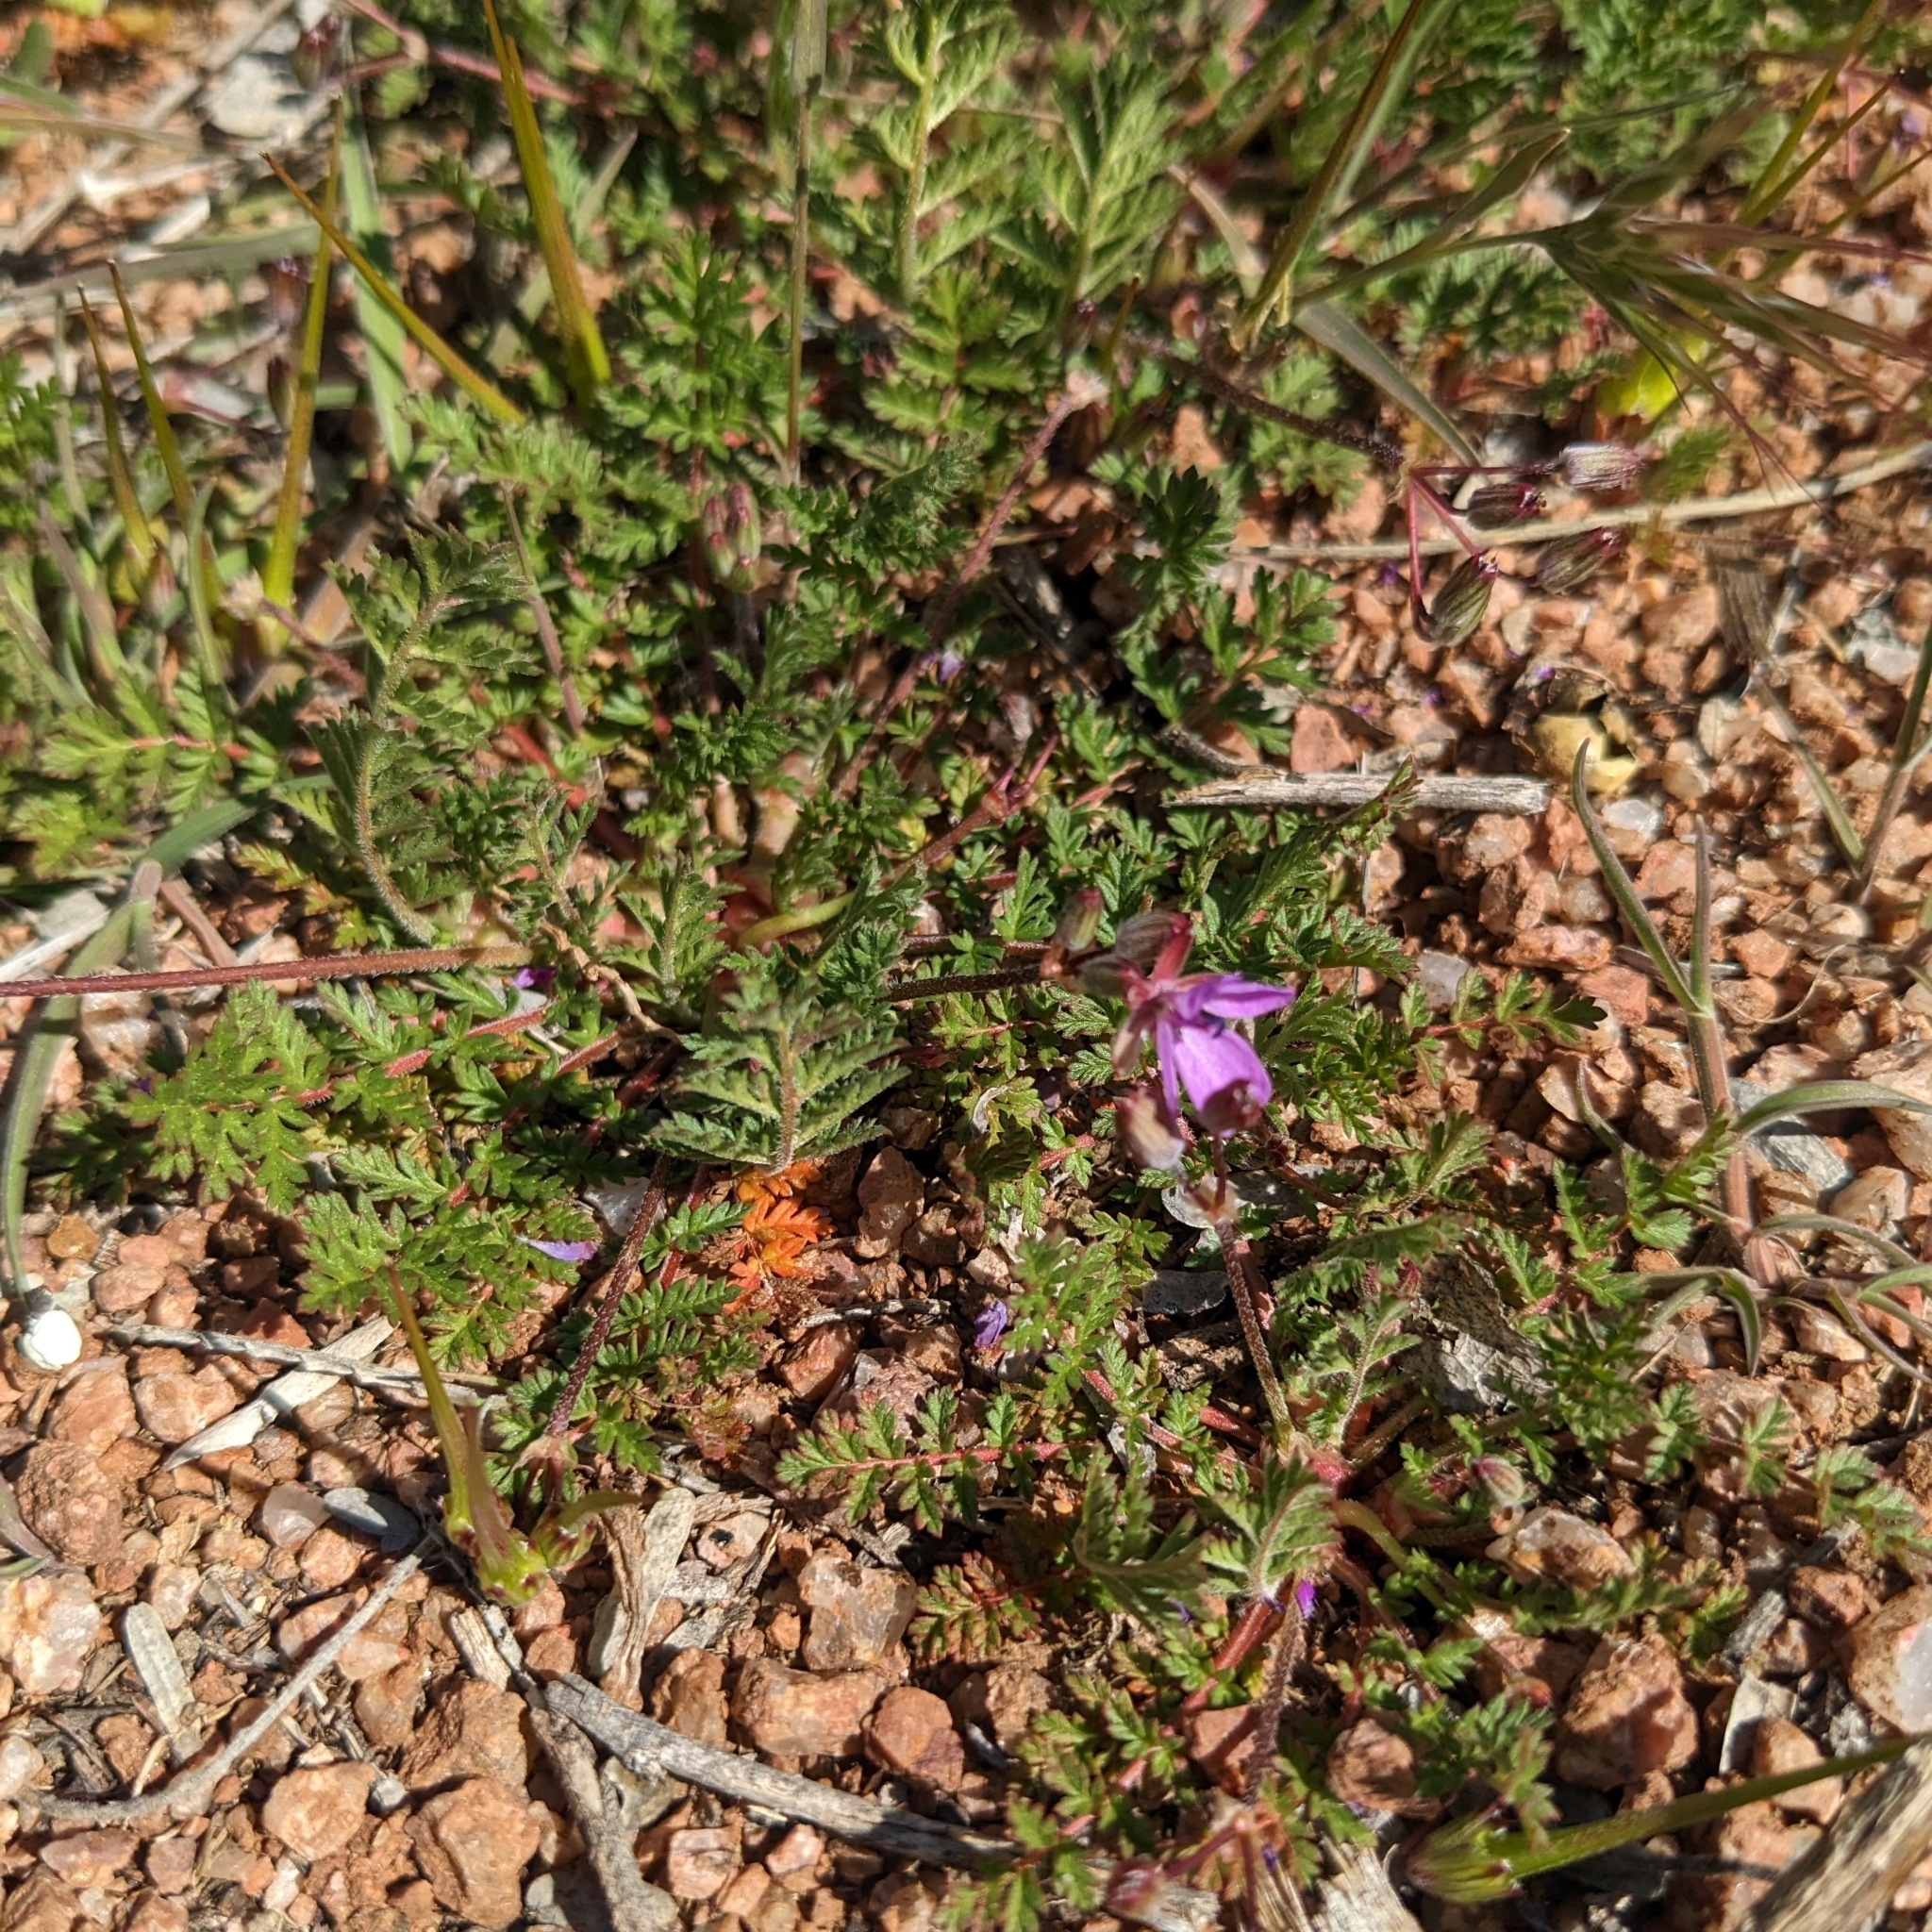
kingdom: Plantae
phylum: Tracheophyta
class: Magnoliopsida
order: Geraniales
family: Geraniaceae
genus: Erodium
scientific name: Erodium cicutarium
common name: Common stork's-bill
